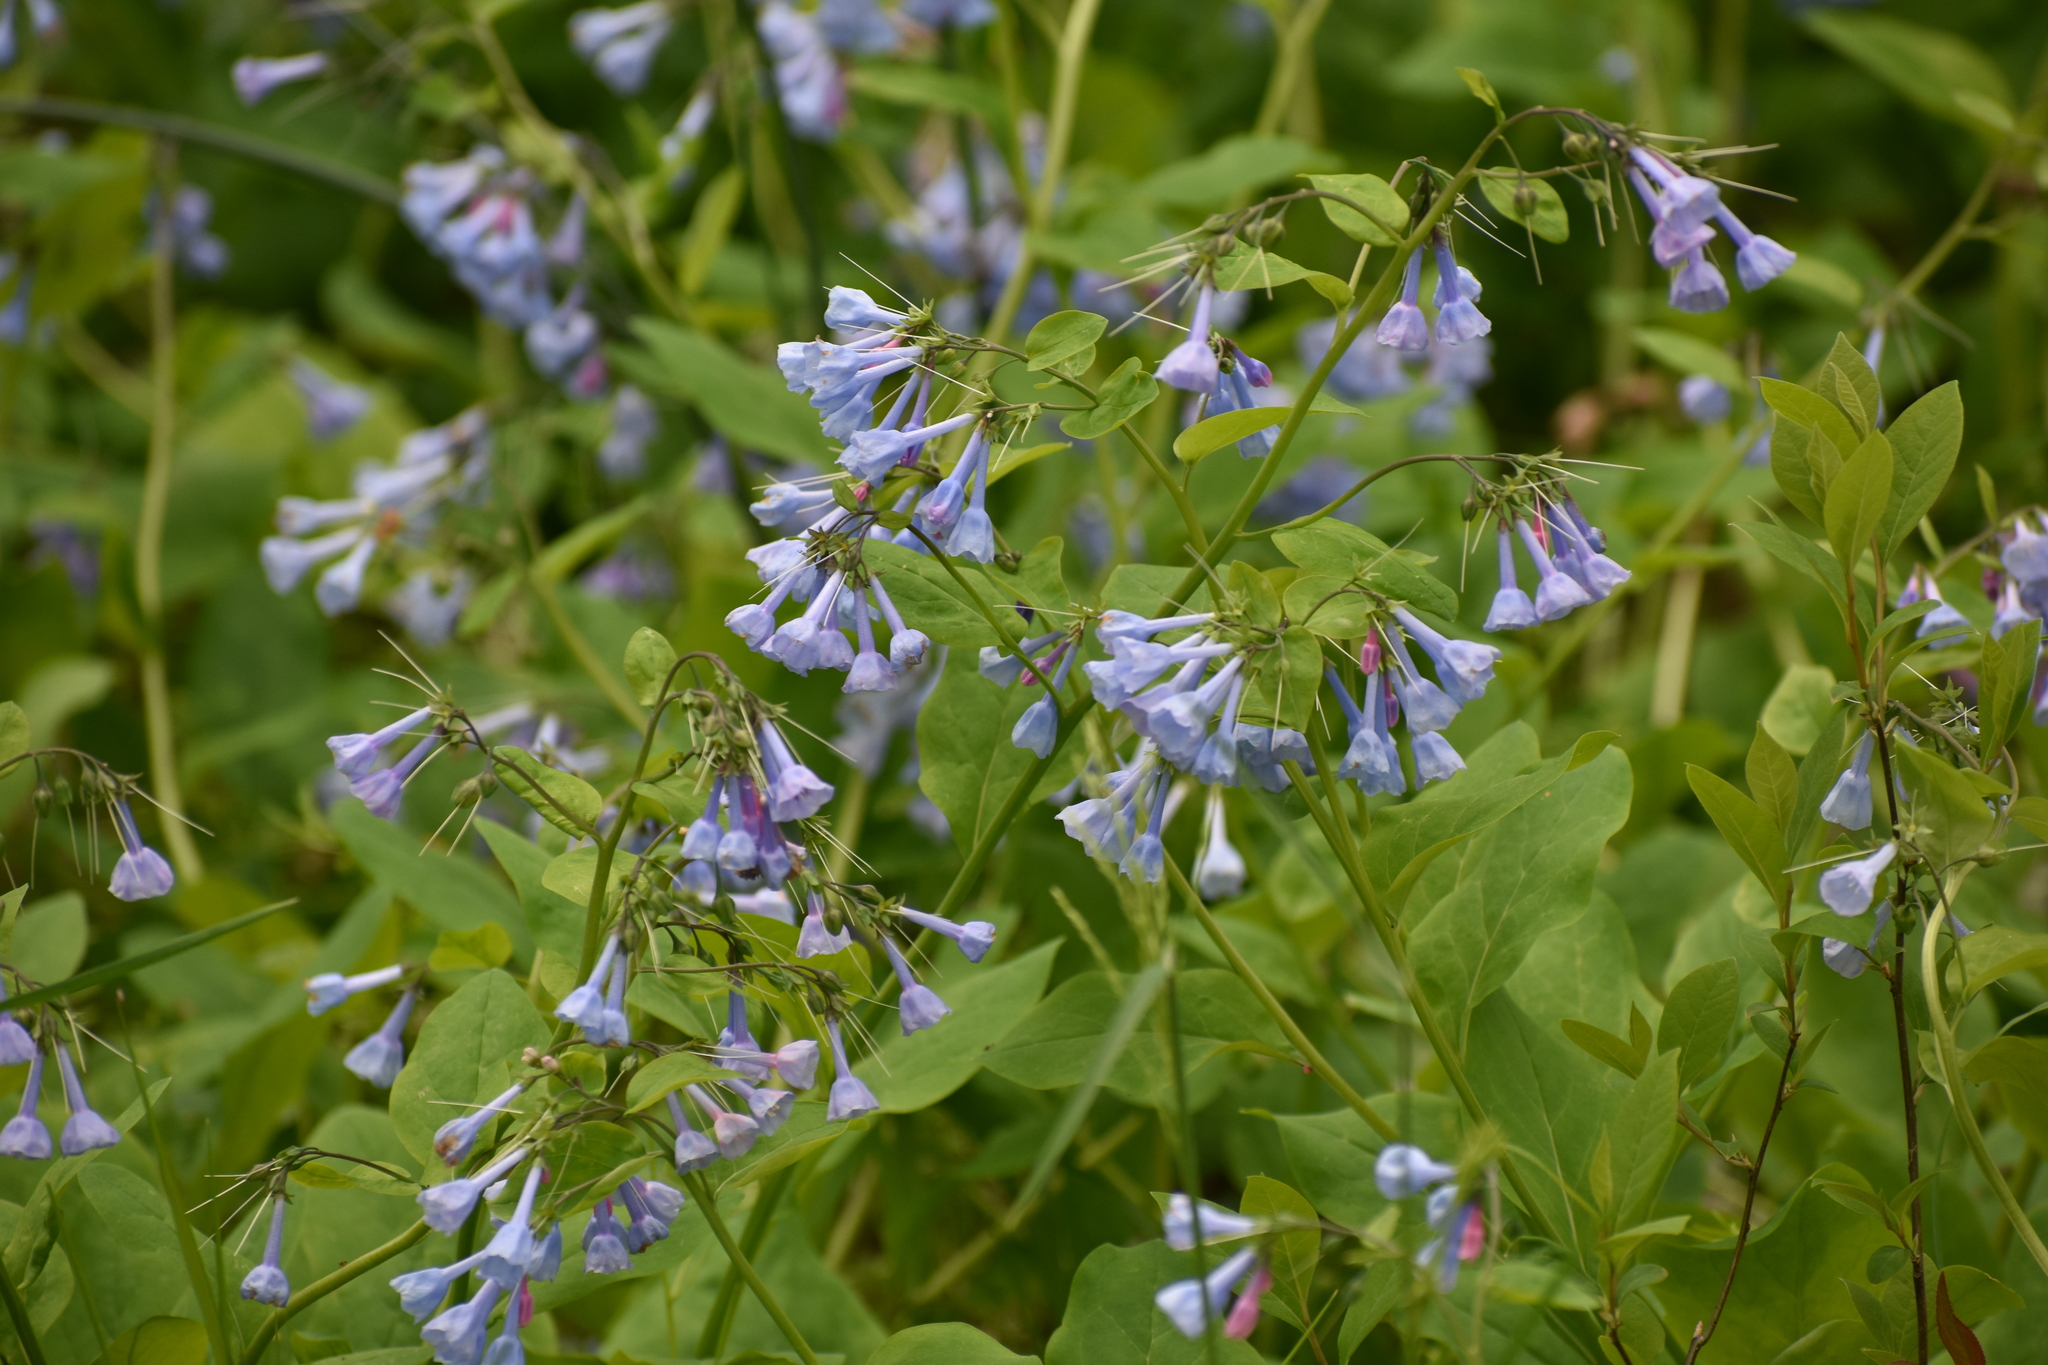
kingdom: Plantae
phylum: Tracheophyta
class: Magnoliopsida
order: Boraginales
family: Boraginaceae
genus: Mertensia
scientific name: Mertensia virginica
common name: Virginia bluebells
